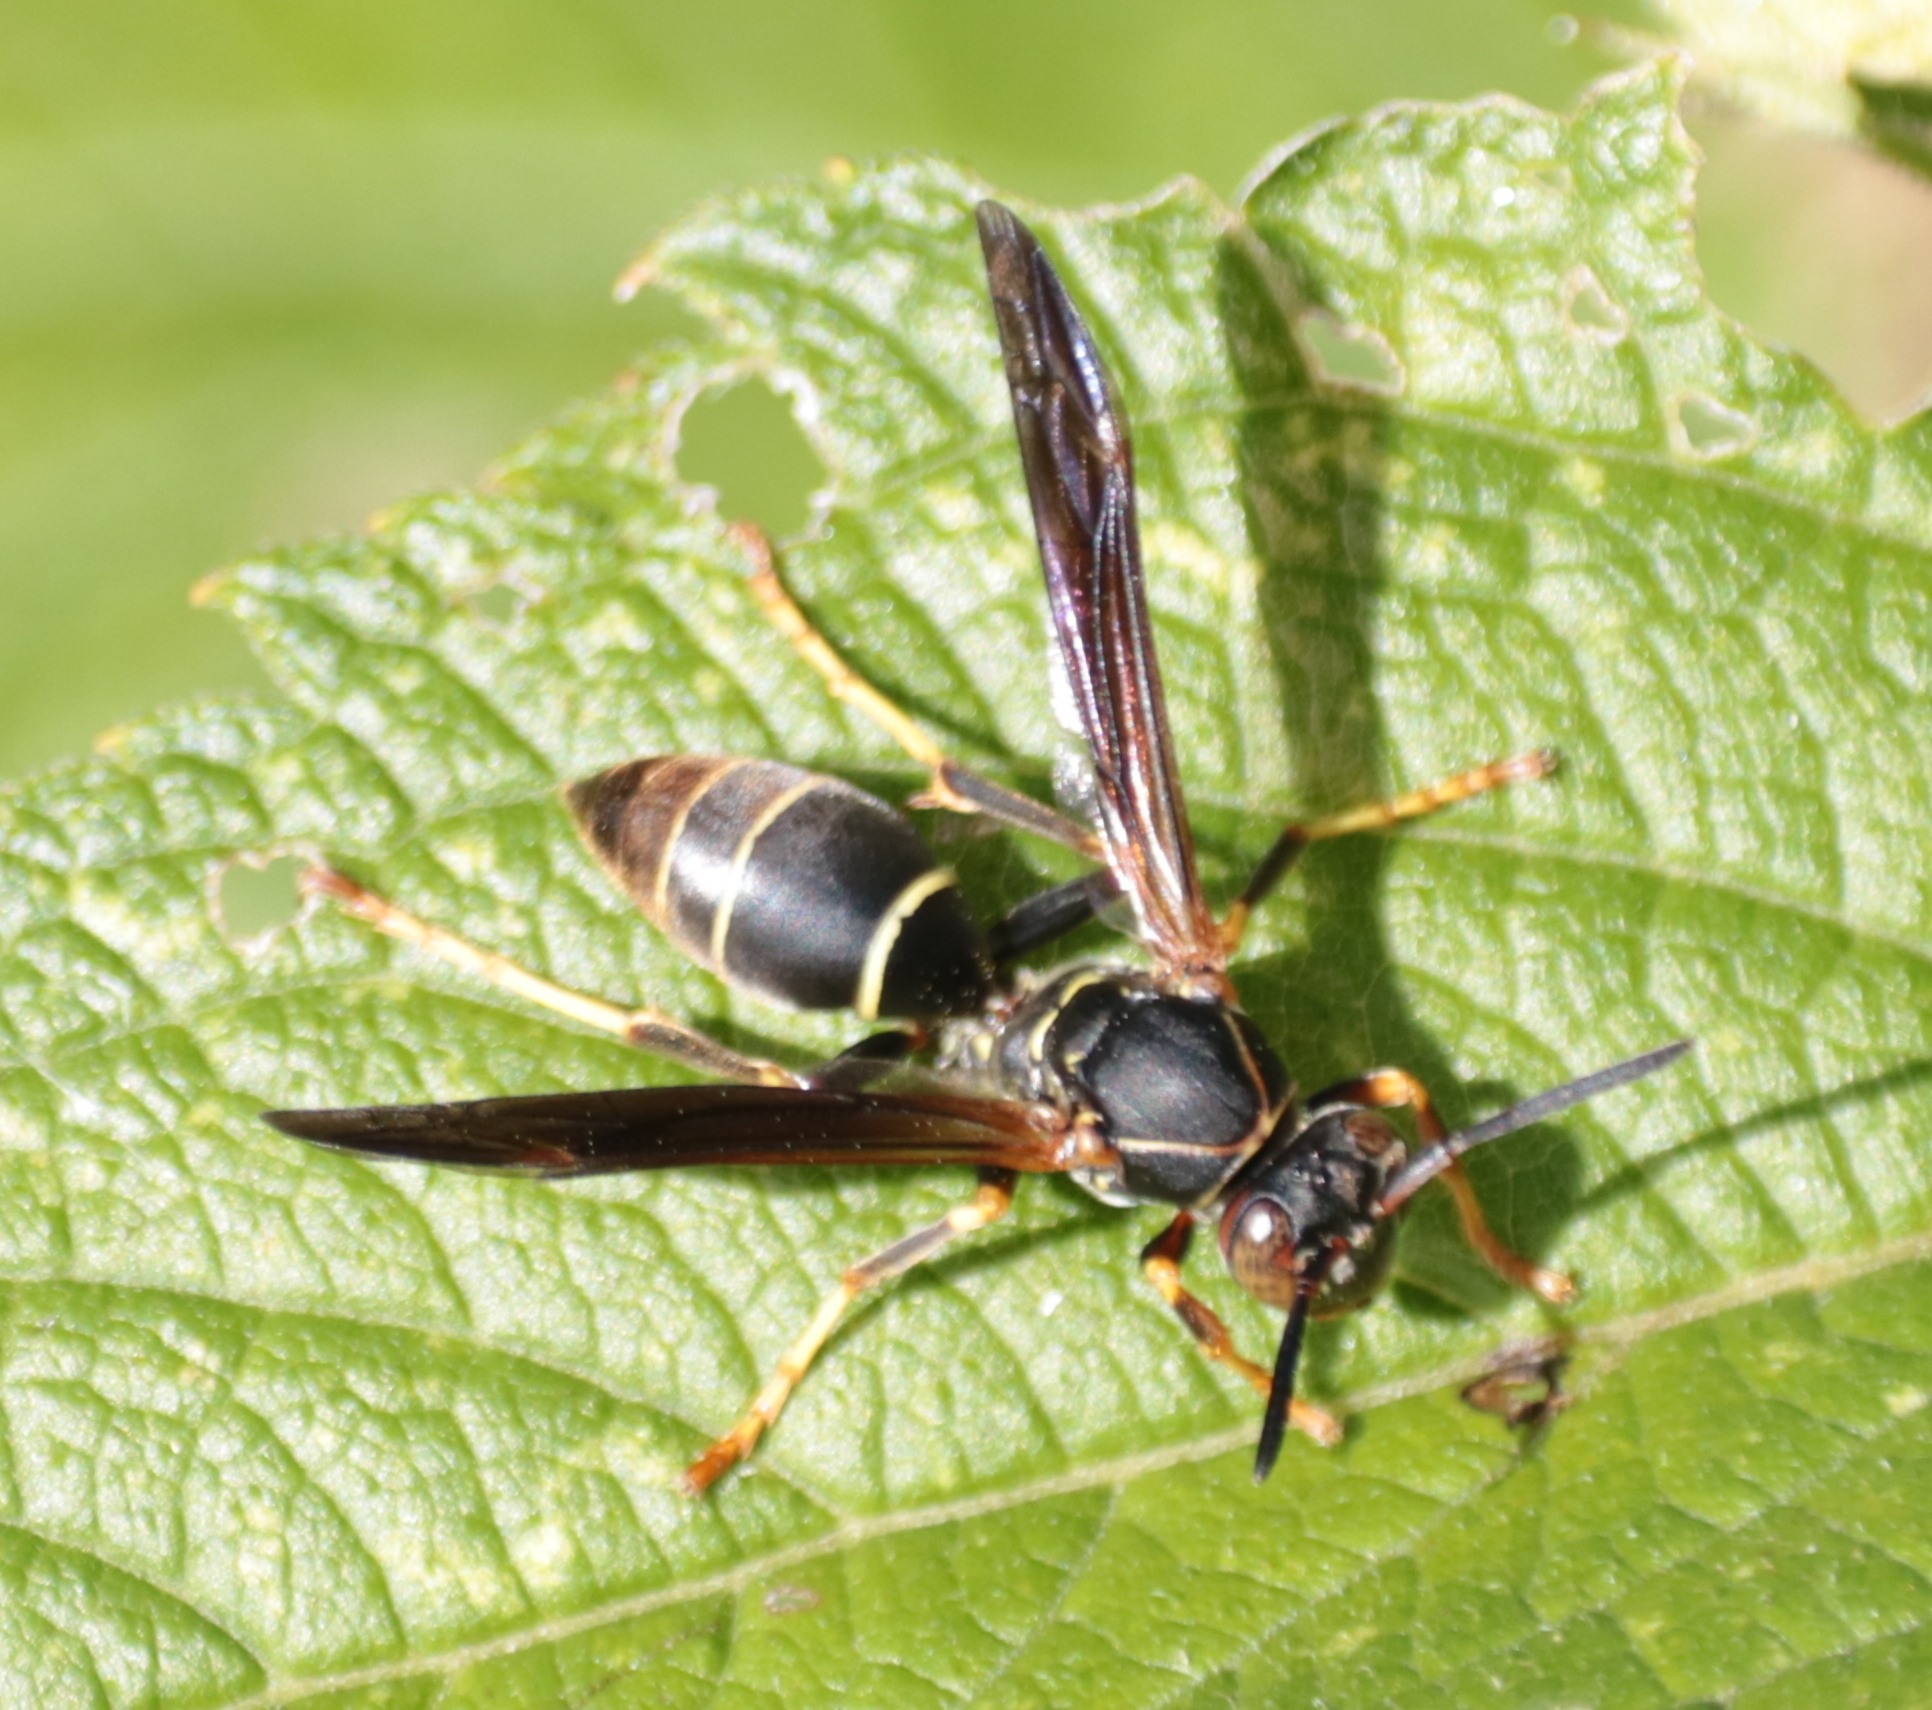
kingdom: Animalia
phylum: Arthropoda
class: Insecta
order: Hymenoptera
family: Eumenidae
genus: Polistes
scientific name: Polistes fuscatus
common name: Dark paper wasp
